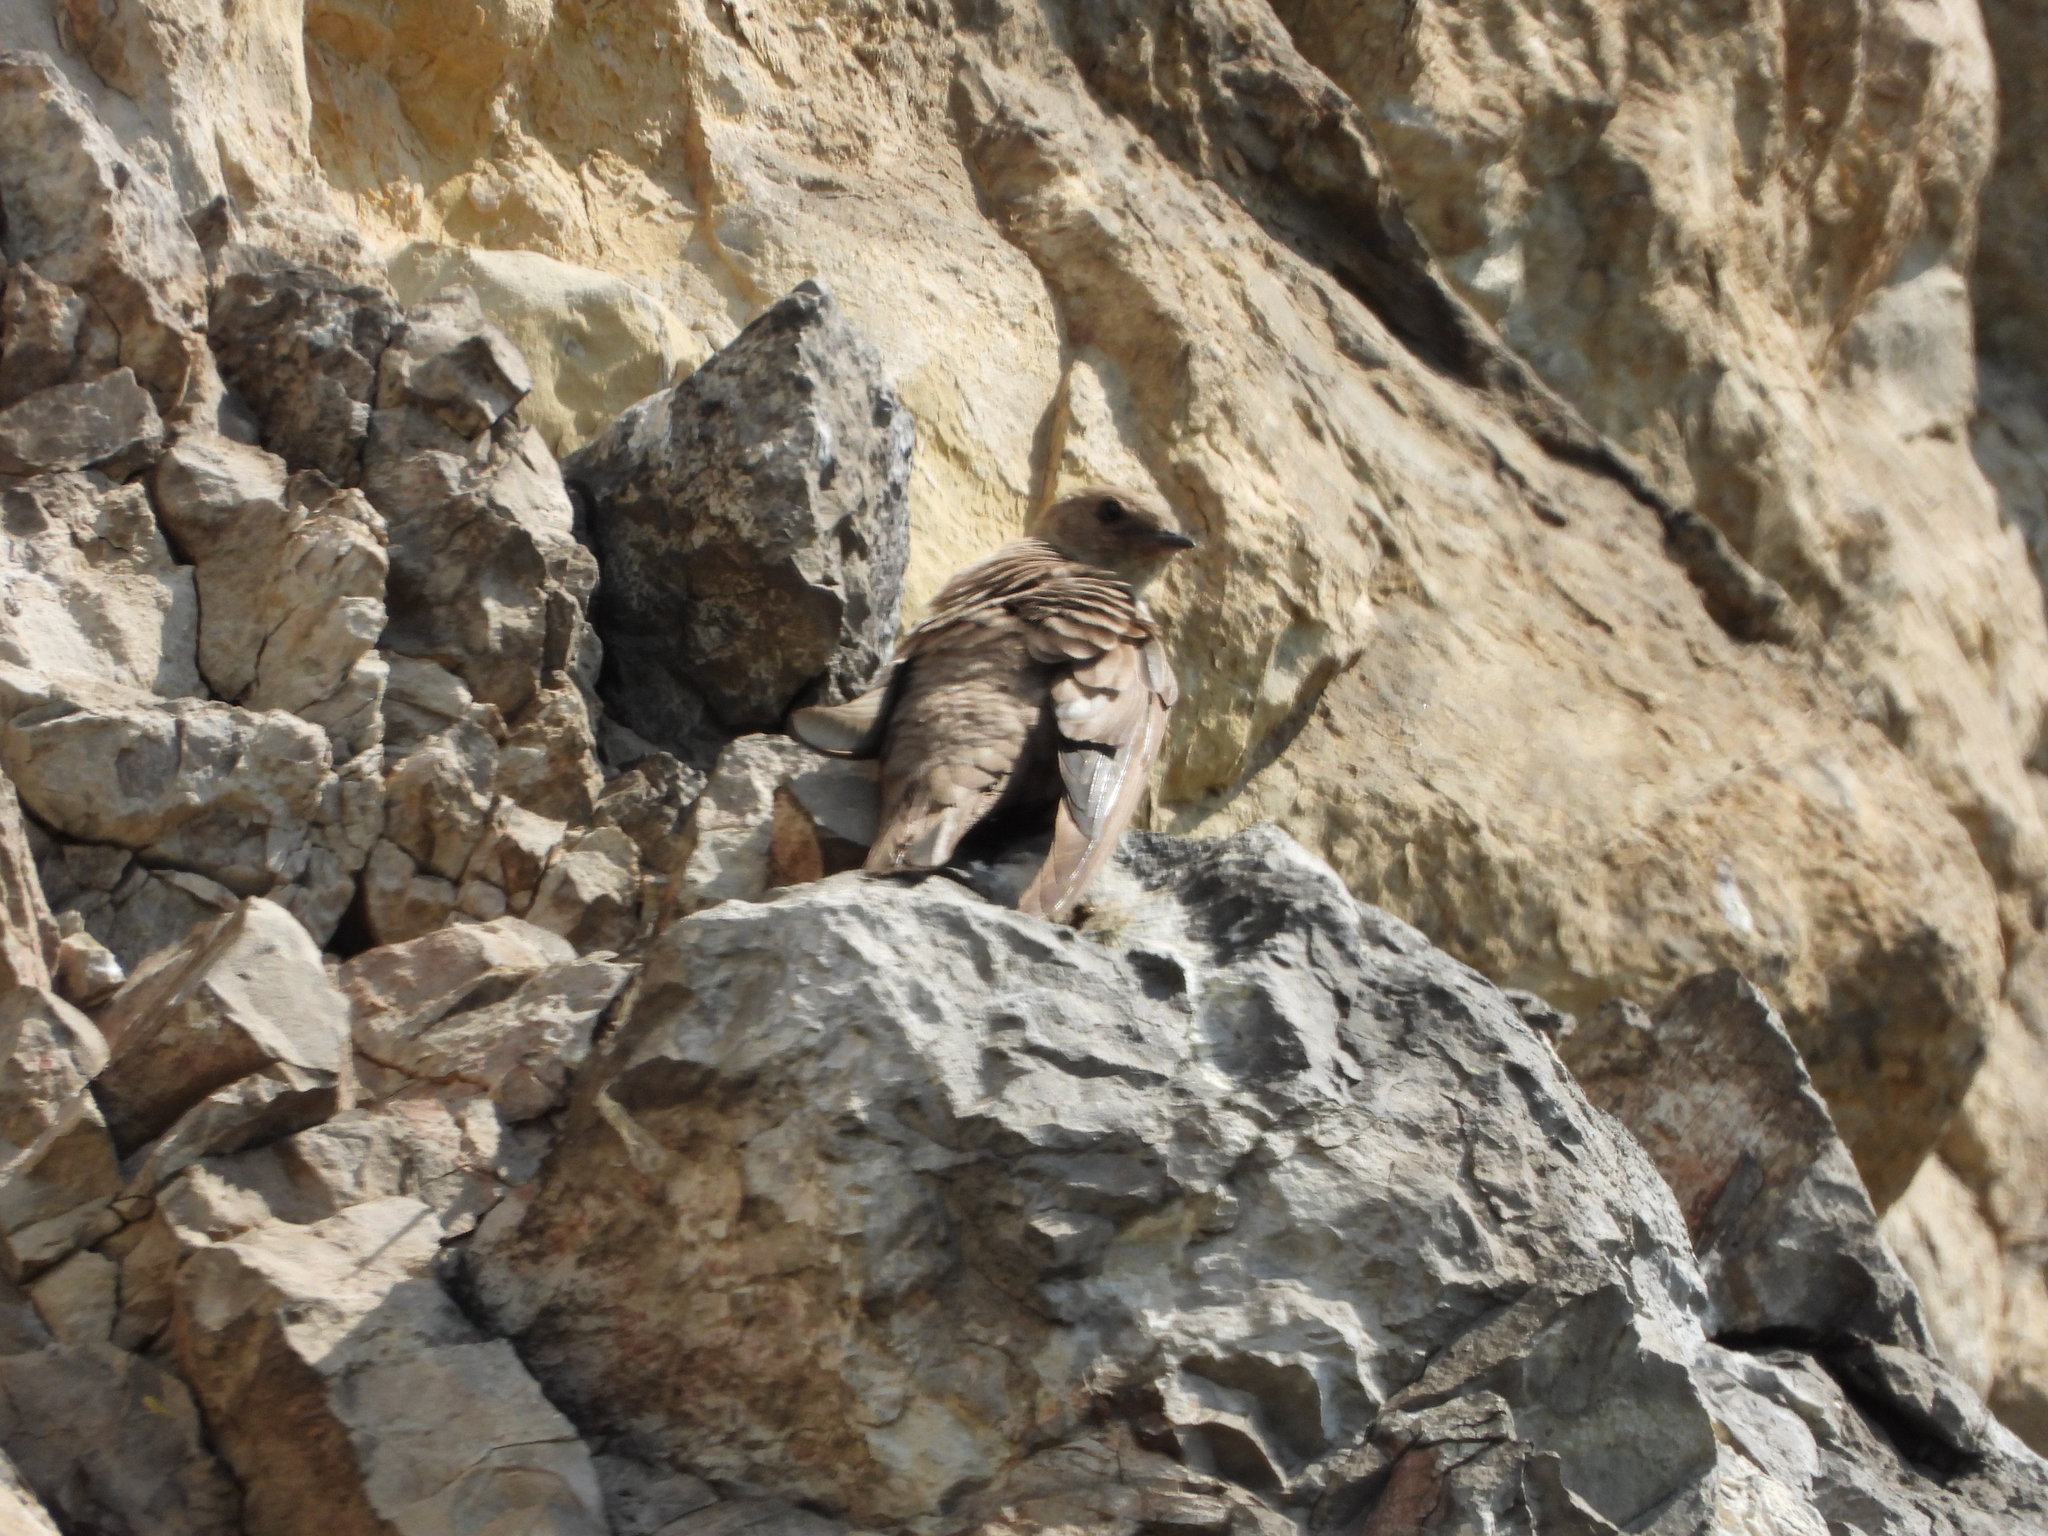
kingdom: Animalia
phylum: Chordata
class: Aves
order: Passeriformes
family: Hirundinidae
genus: Ptyonoprogne
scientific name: Ptyonoprogne rupestris
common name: Eurasian crag martin
